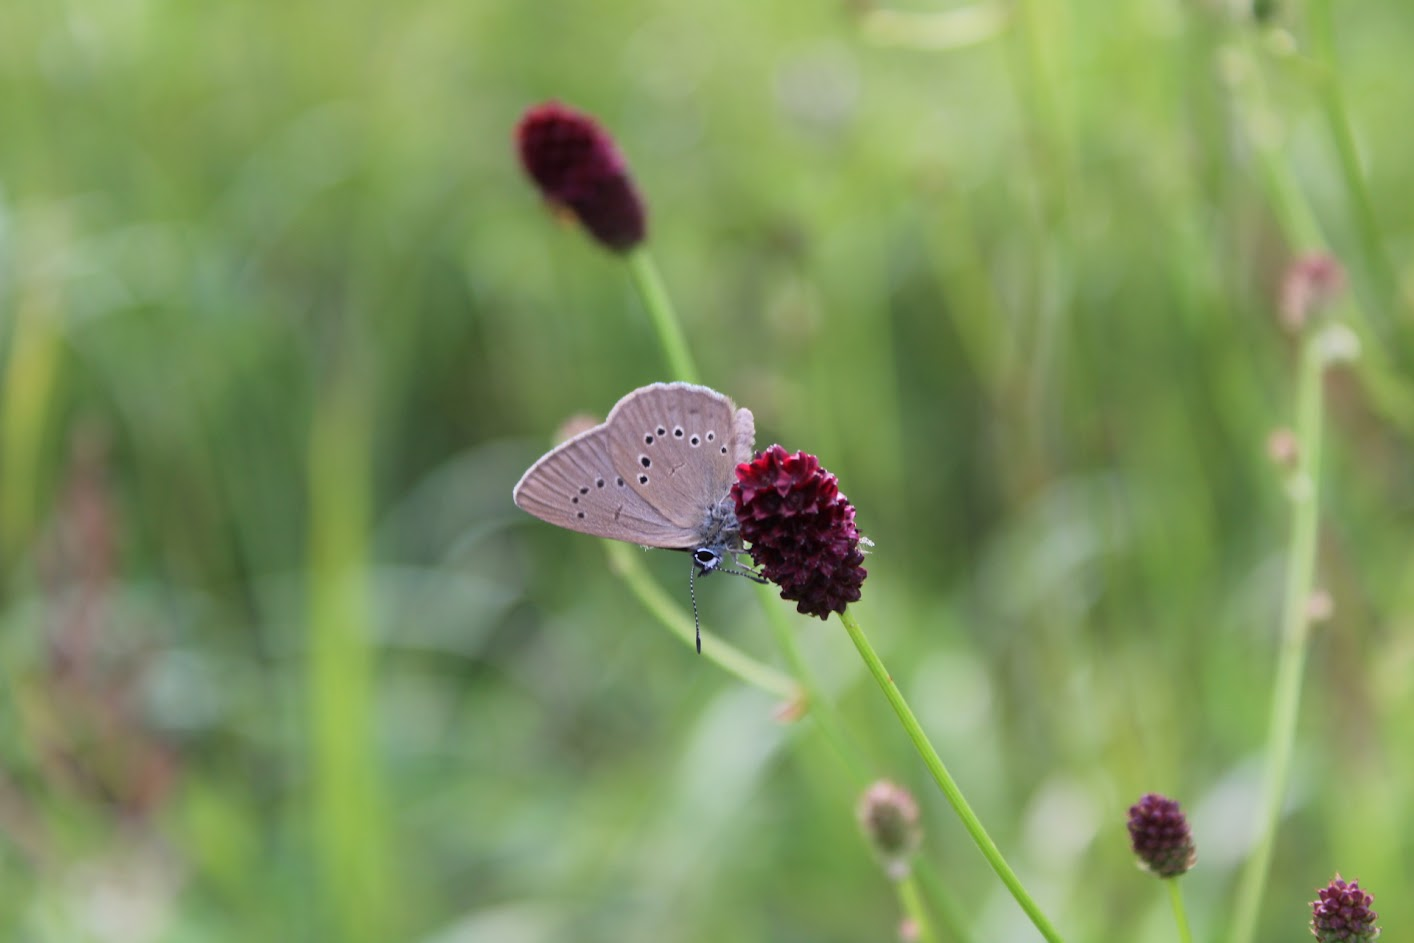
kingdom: Animalia
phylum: Arthropoda
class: Insecta
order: Lepidoptera
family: Lycaenidae
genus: Maculinea
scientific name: Maculinea nausithous
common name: Dusky large blue
